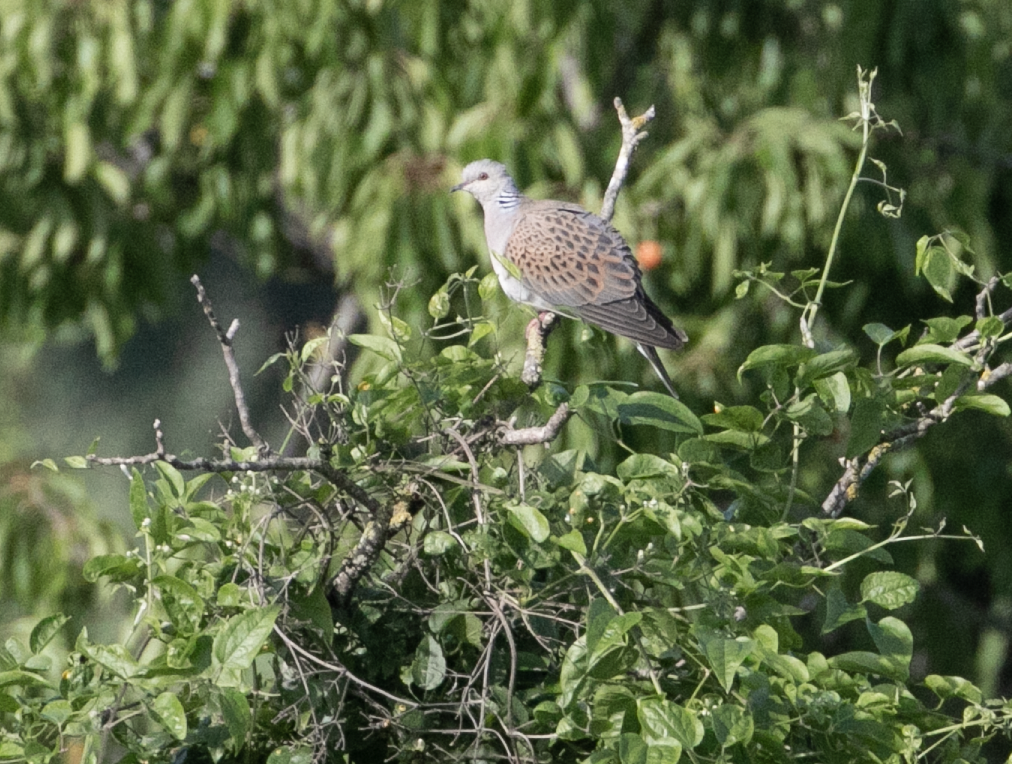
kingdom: Animalia
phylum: Chordata
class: Aves
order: Columbiformes
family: Columbidae
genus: Streptopelia
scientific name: Streptopelia turtur
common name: European turtle dove
